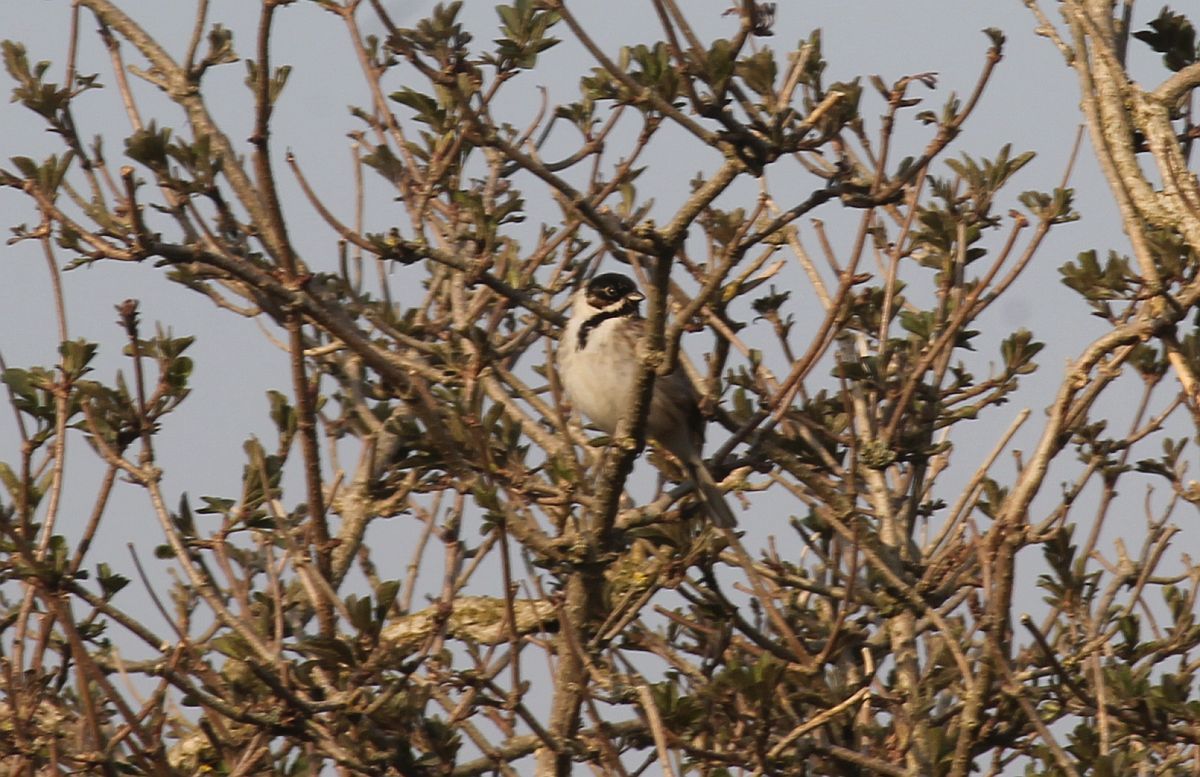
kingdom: Animalia
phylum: Chordata
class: Aves
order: Passeriformes
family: Emberizidae
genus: Emberiza
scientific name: Emberiza schoeniclus
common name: Reed bunting
